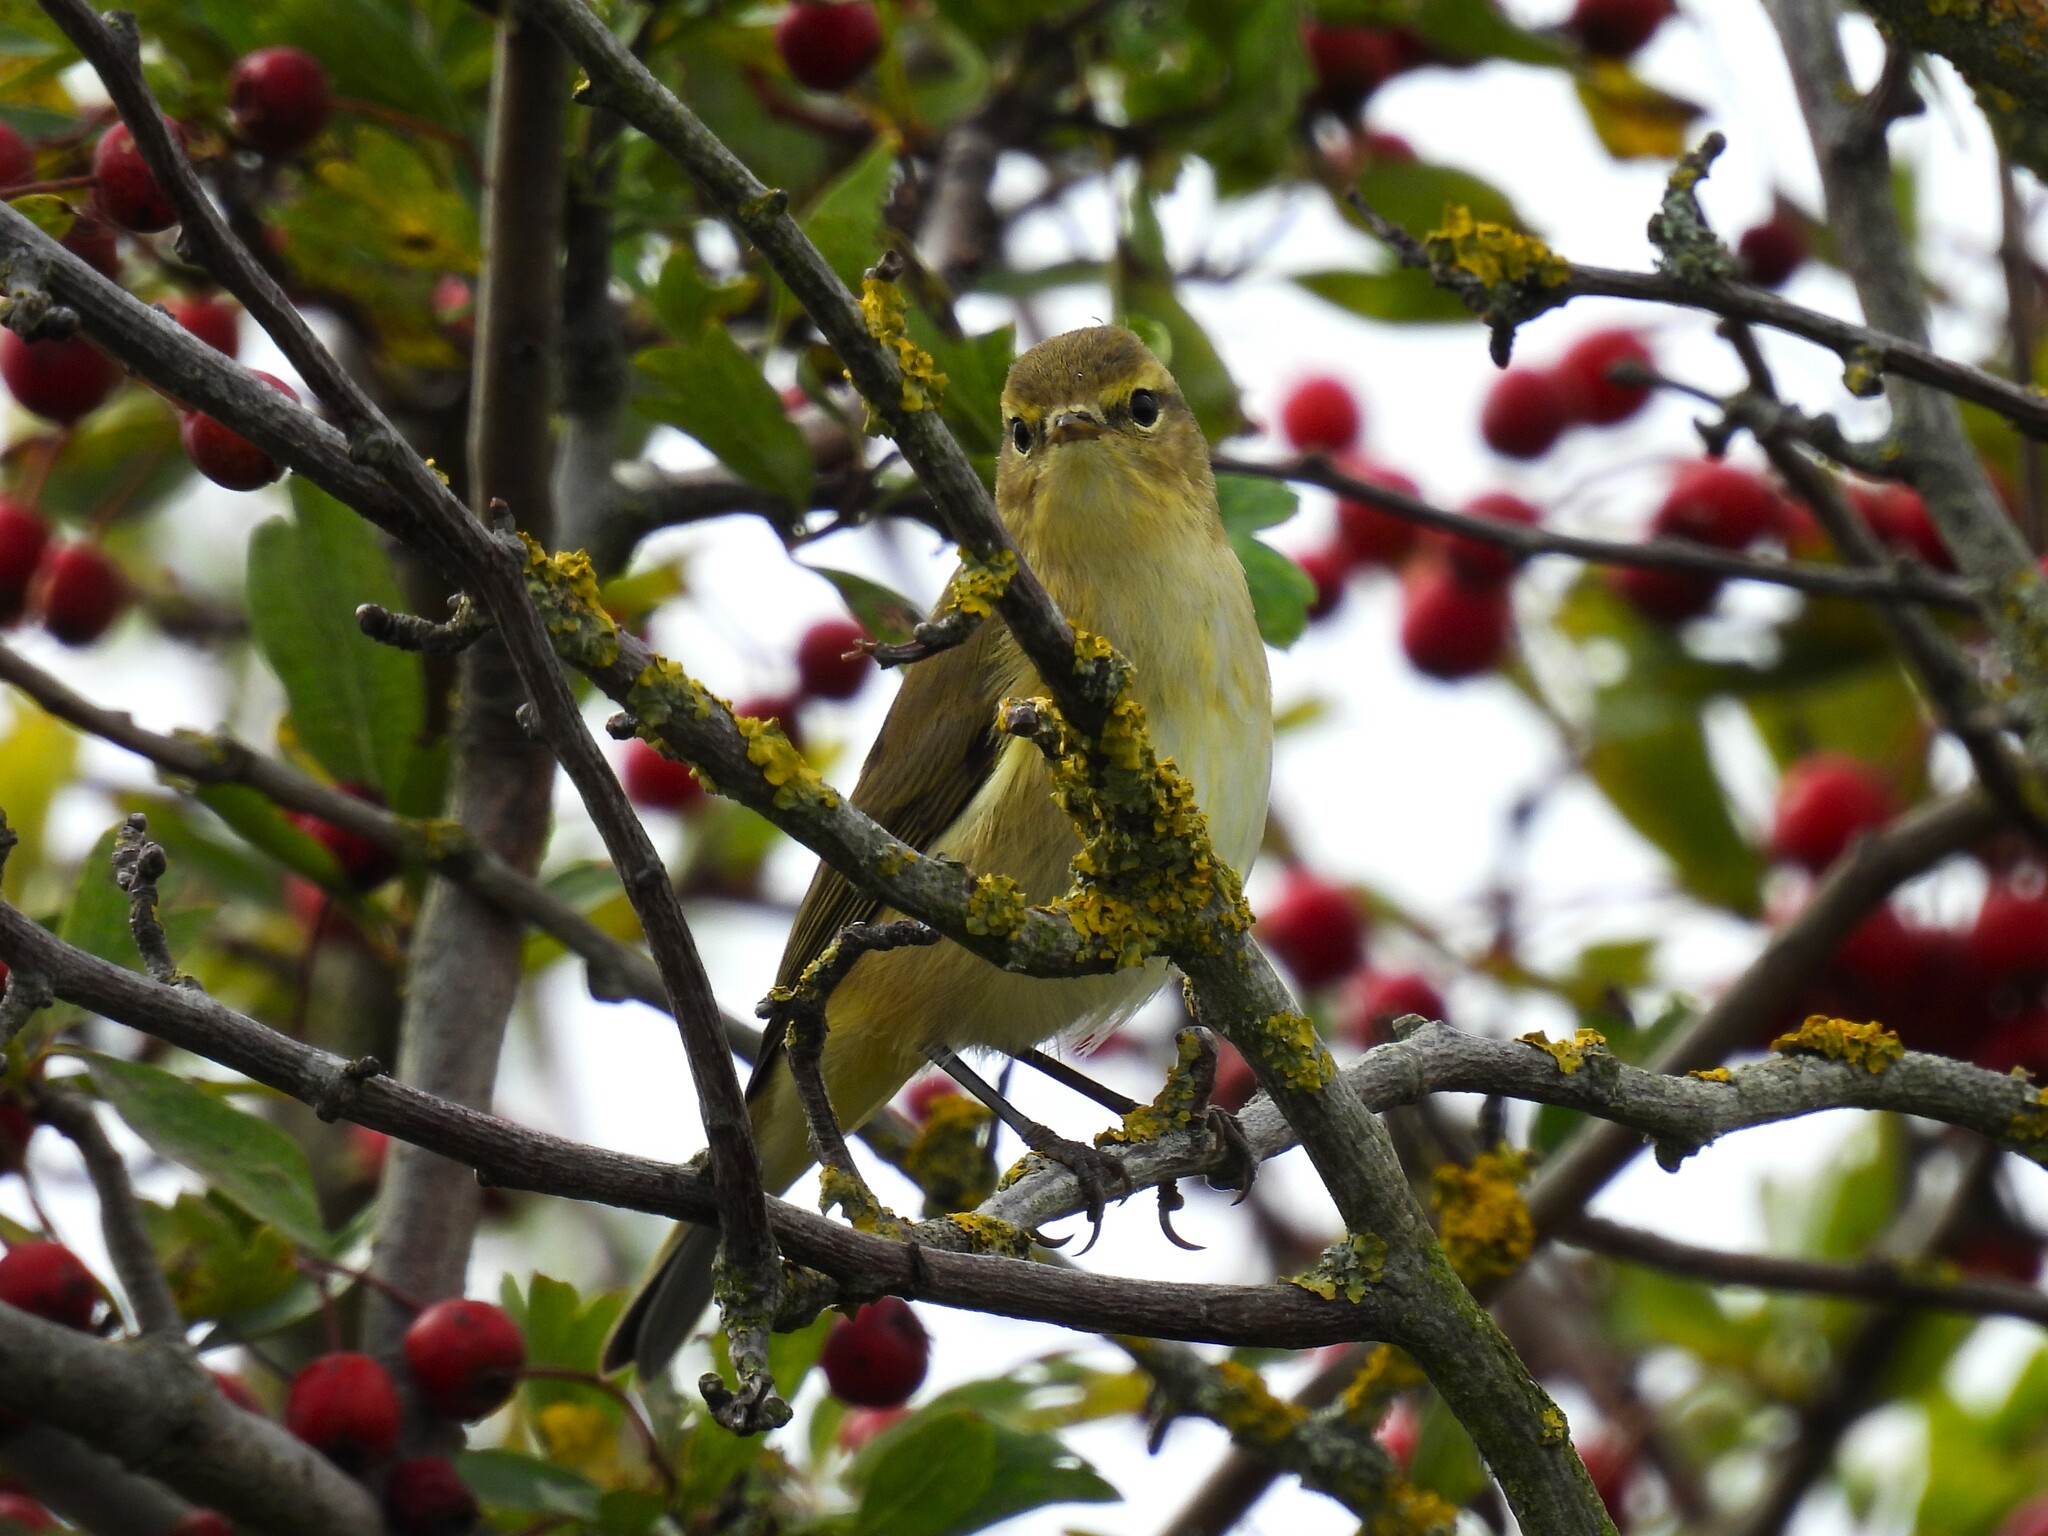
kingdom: Animalia
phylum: Chordata
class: Aves
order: Passeriformes
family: Phylloscopidae
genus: Phylloscopus
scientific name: Phylloscopus collybita
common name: Common chiffchaff
